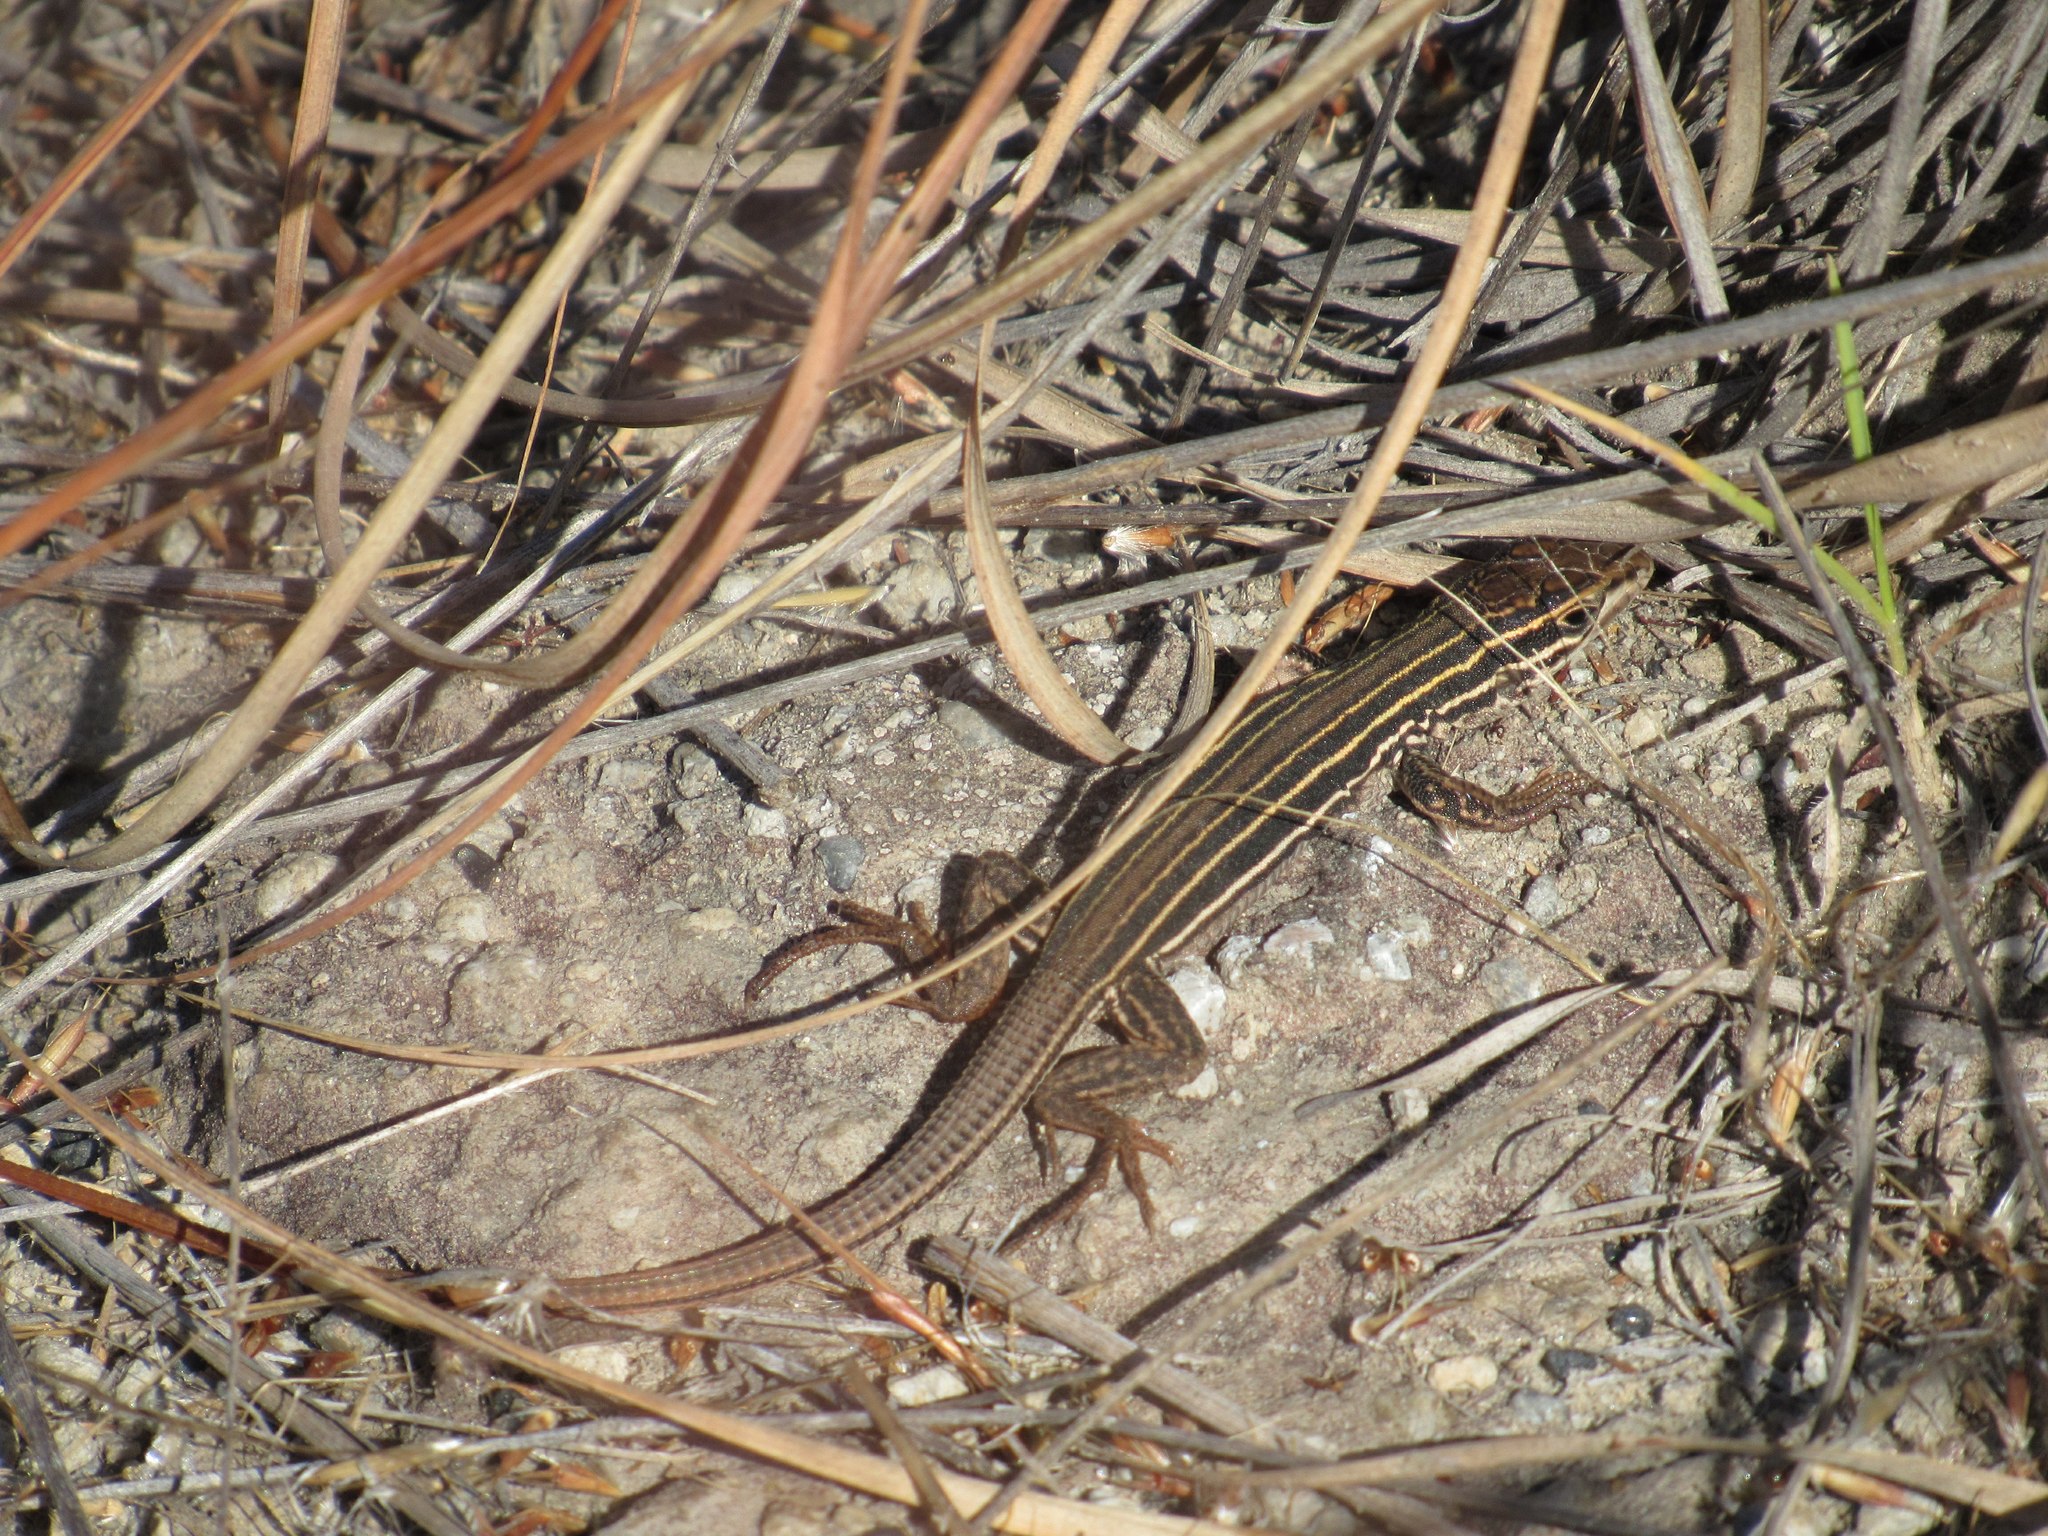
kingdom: Animalia
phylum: Chordata
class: Squamata
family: Teiidae
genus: Aspidoscelis
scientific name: Aspidoscelis gularis
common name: Eastern spotted whiptail
